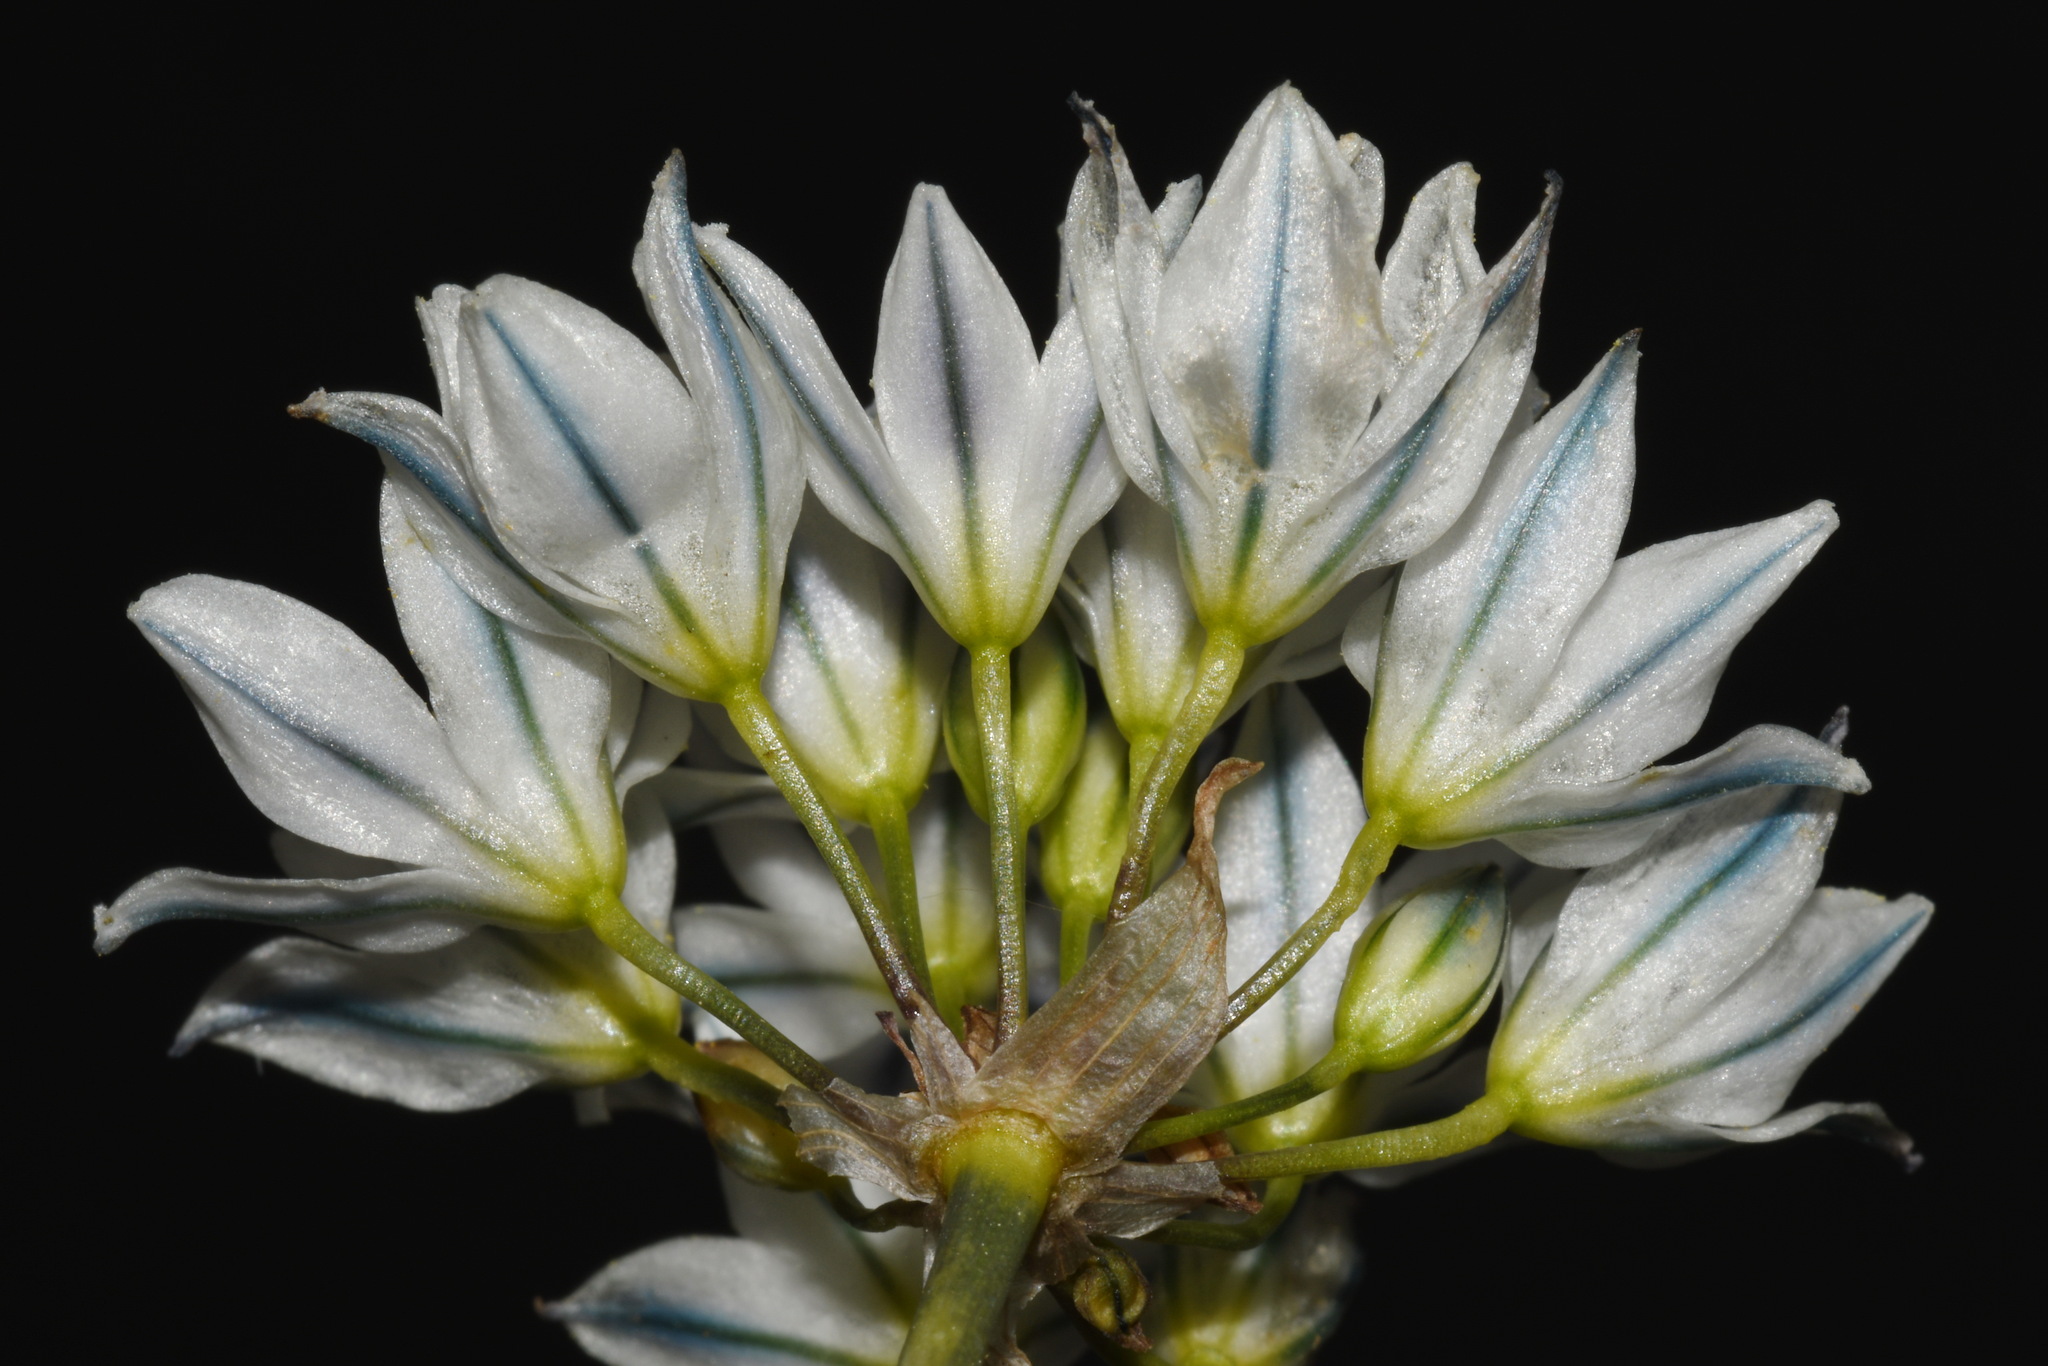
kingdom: Plantae
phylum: Tracheophyta
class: Liliopsida
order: Asparagales
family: Asparagaceae
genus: Triteleia
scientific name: Triteleia hyacinthina
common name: White brodiaea
